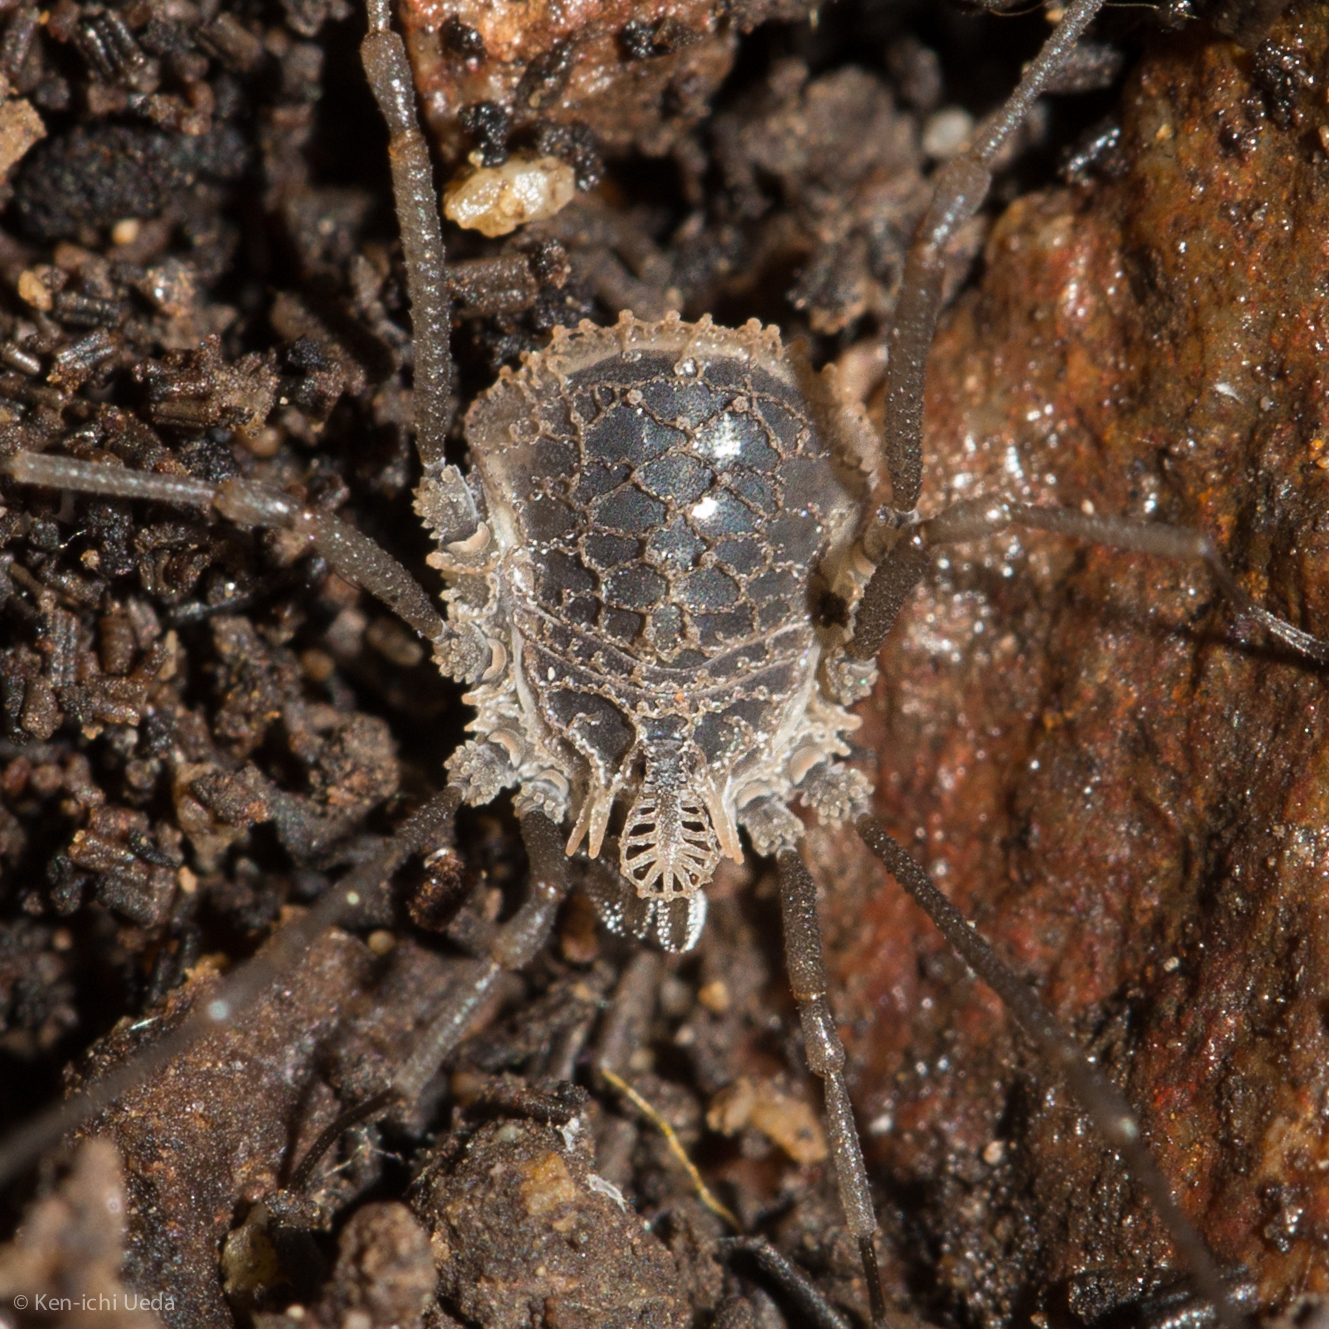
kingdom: Animalia
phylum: Arthropoda
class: Arachnida
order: Opiliones
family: Nemastomatidae
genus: Ortholasma
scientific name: Ortholasma rugosum
